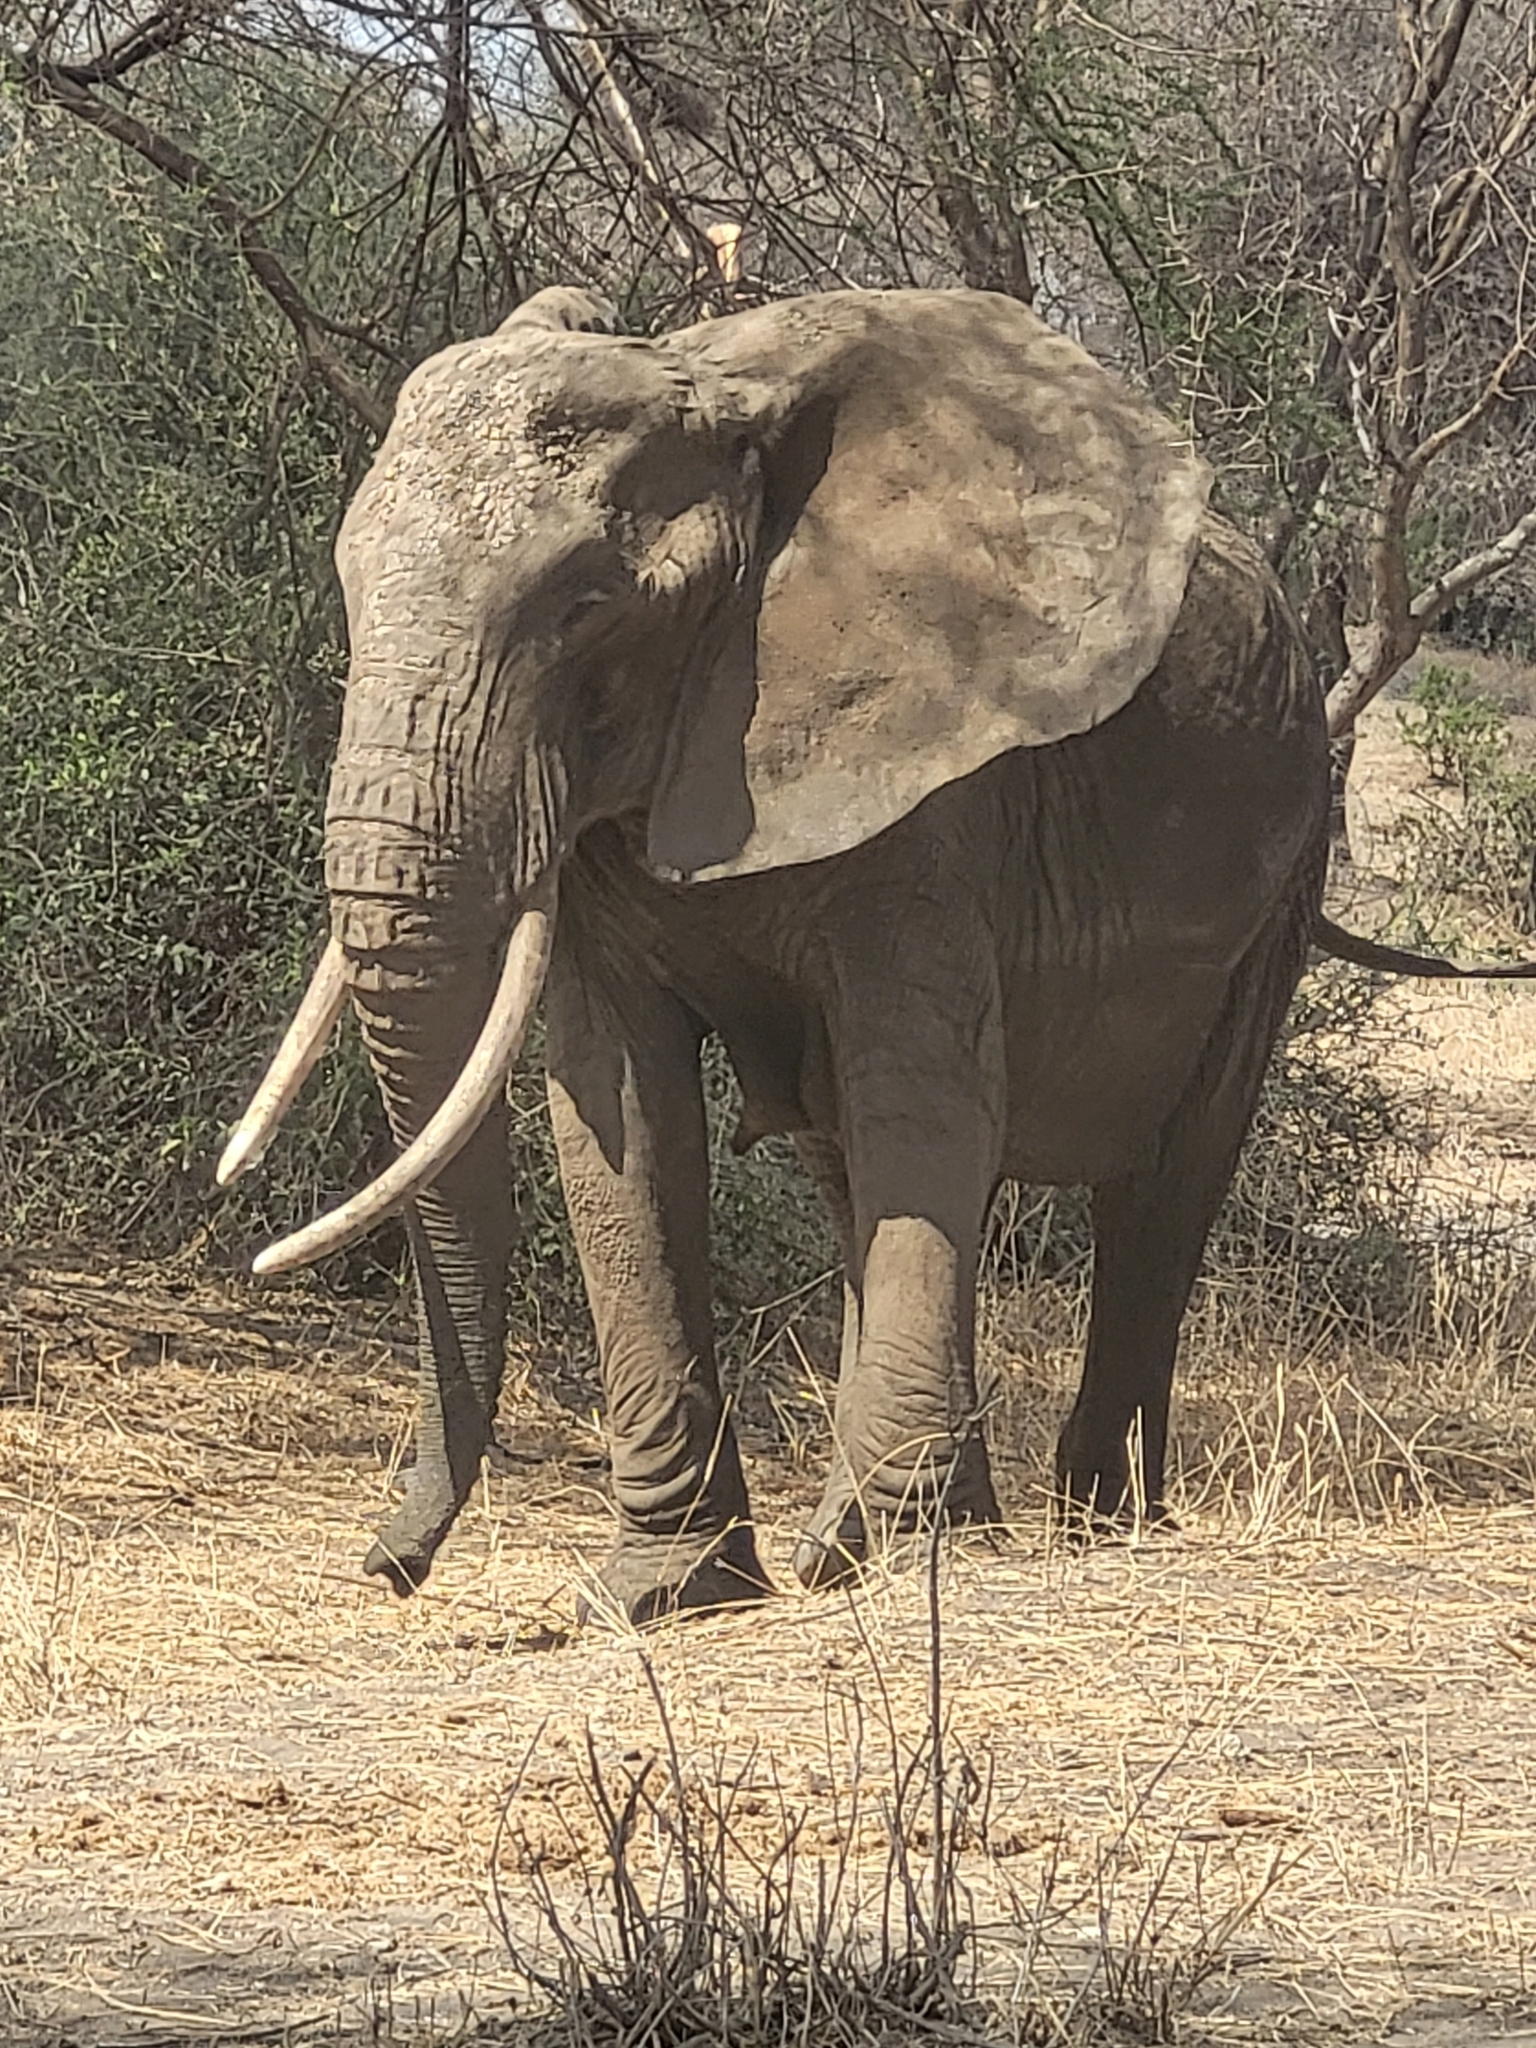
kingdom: Animalia
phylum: Chordata
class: Mammalia
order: Proboscidea
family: Elephantidae
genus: Loxodonta
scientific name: Loxodonta africana
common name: African elephant
